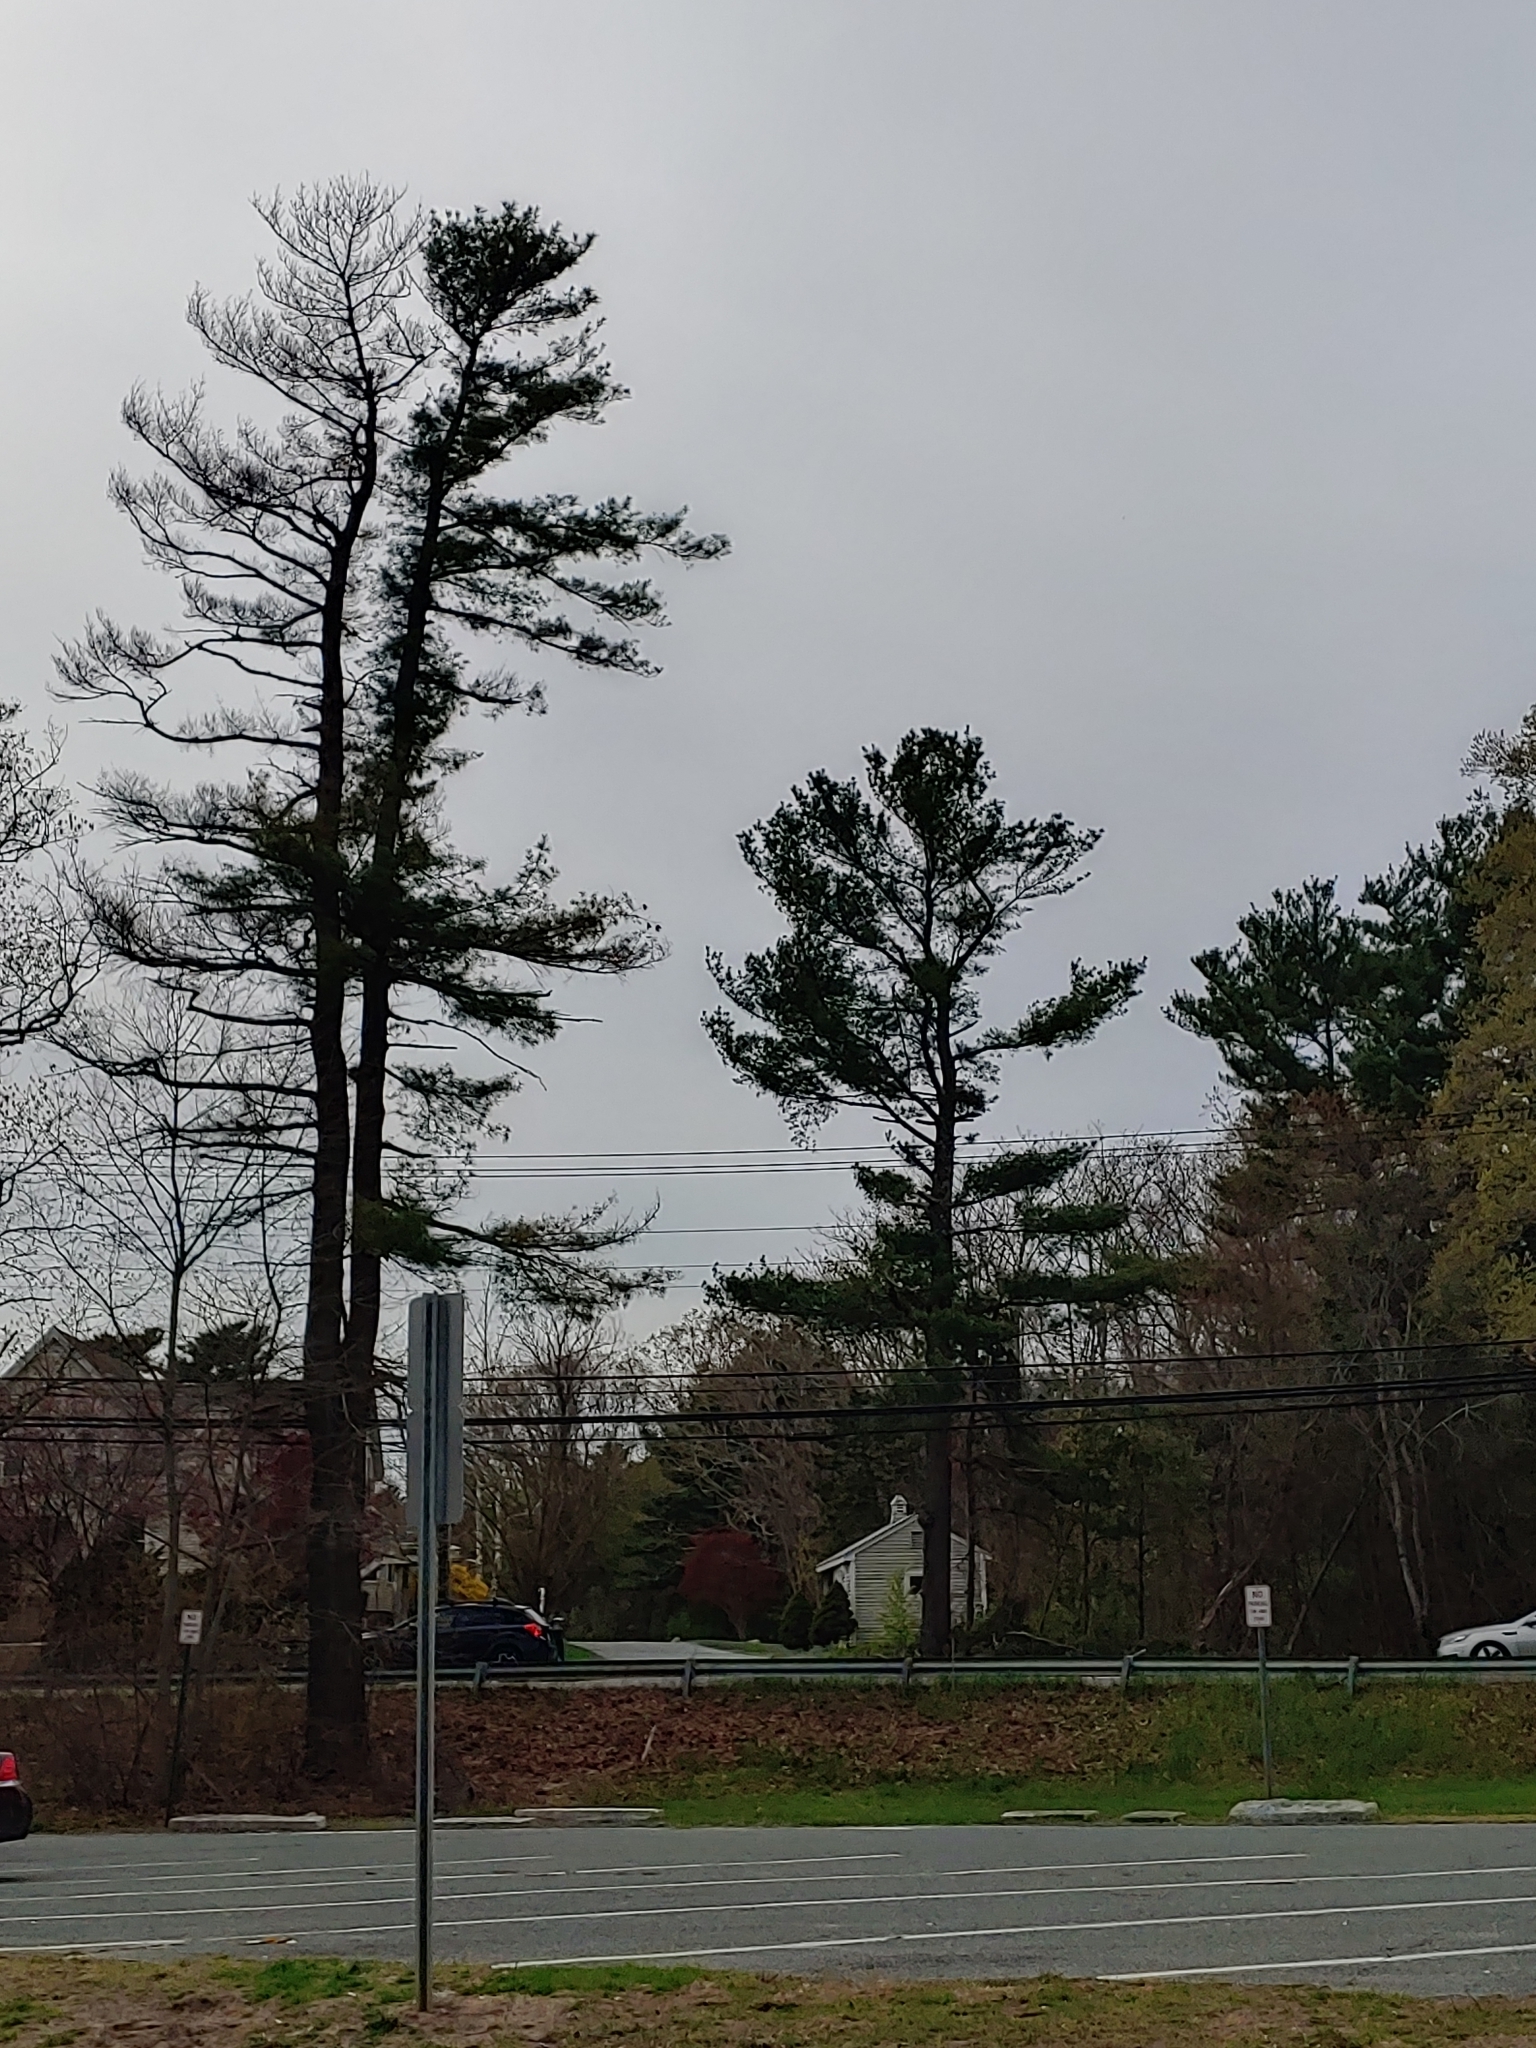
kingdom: Plantae
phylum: Tracheophyta
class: Pinopsida
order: Pinales
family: Pinaceae
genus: Pinus
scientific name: Pinus strobus
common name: Weymouth pine
